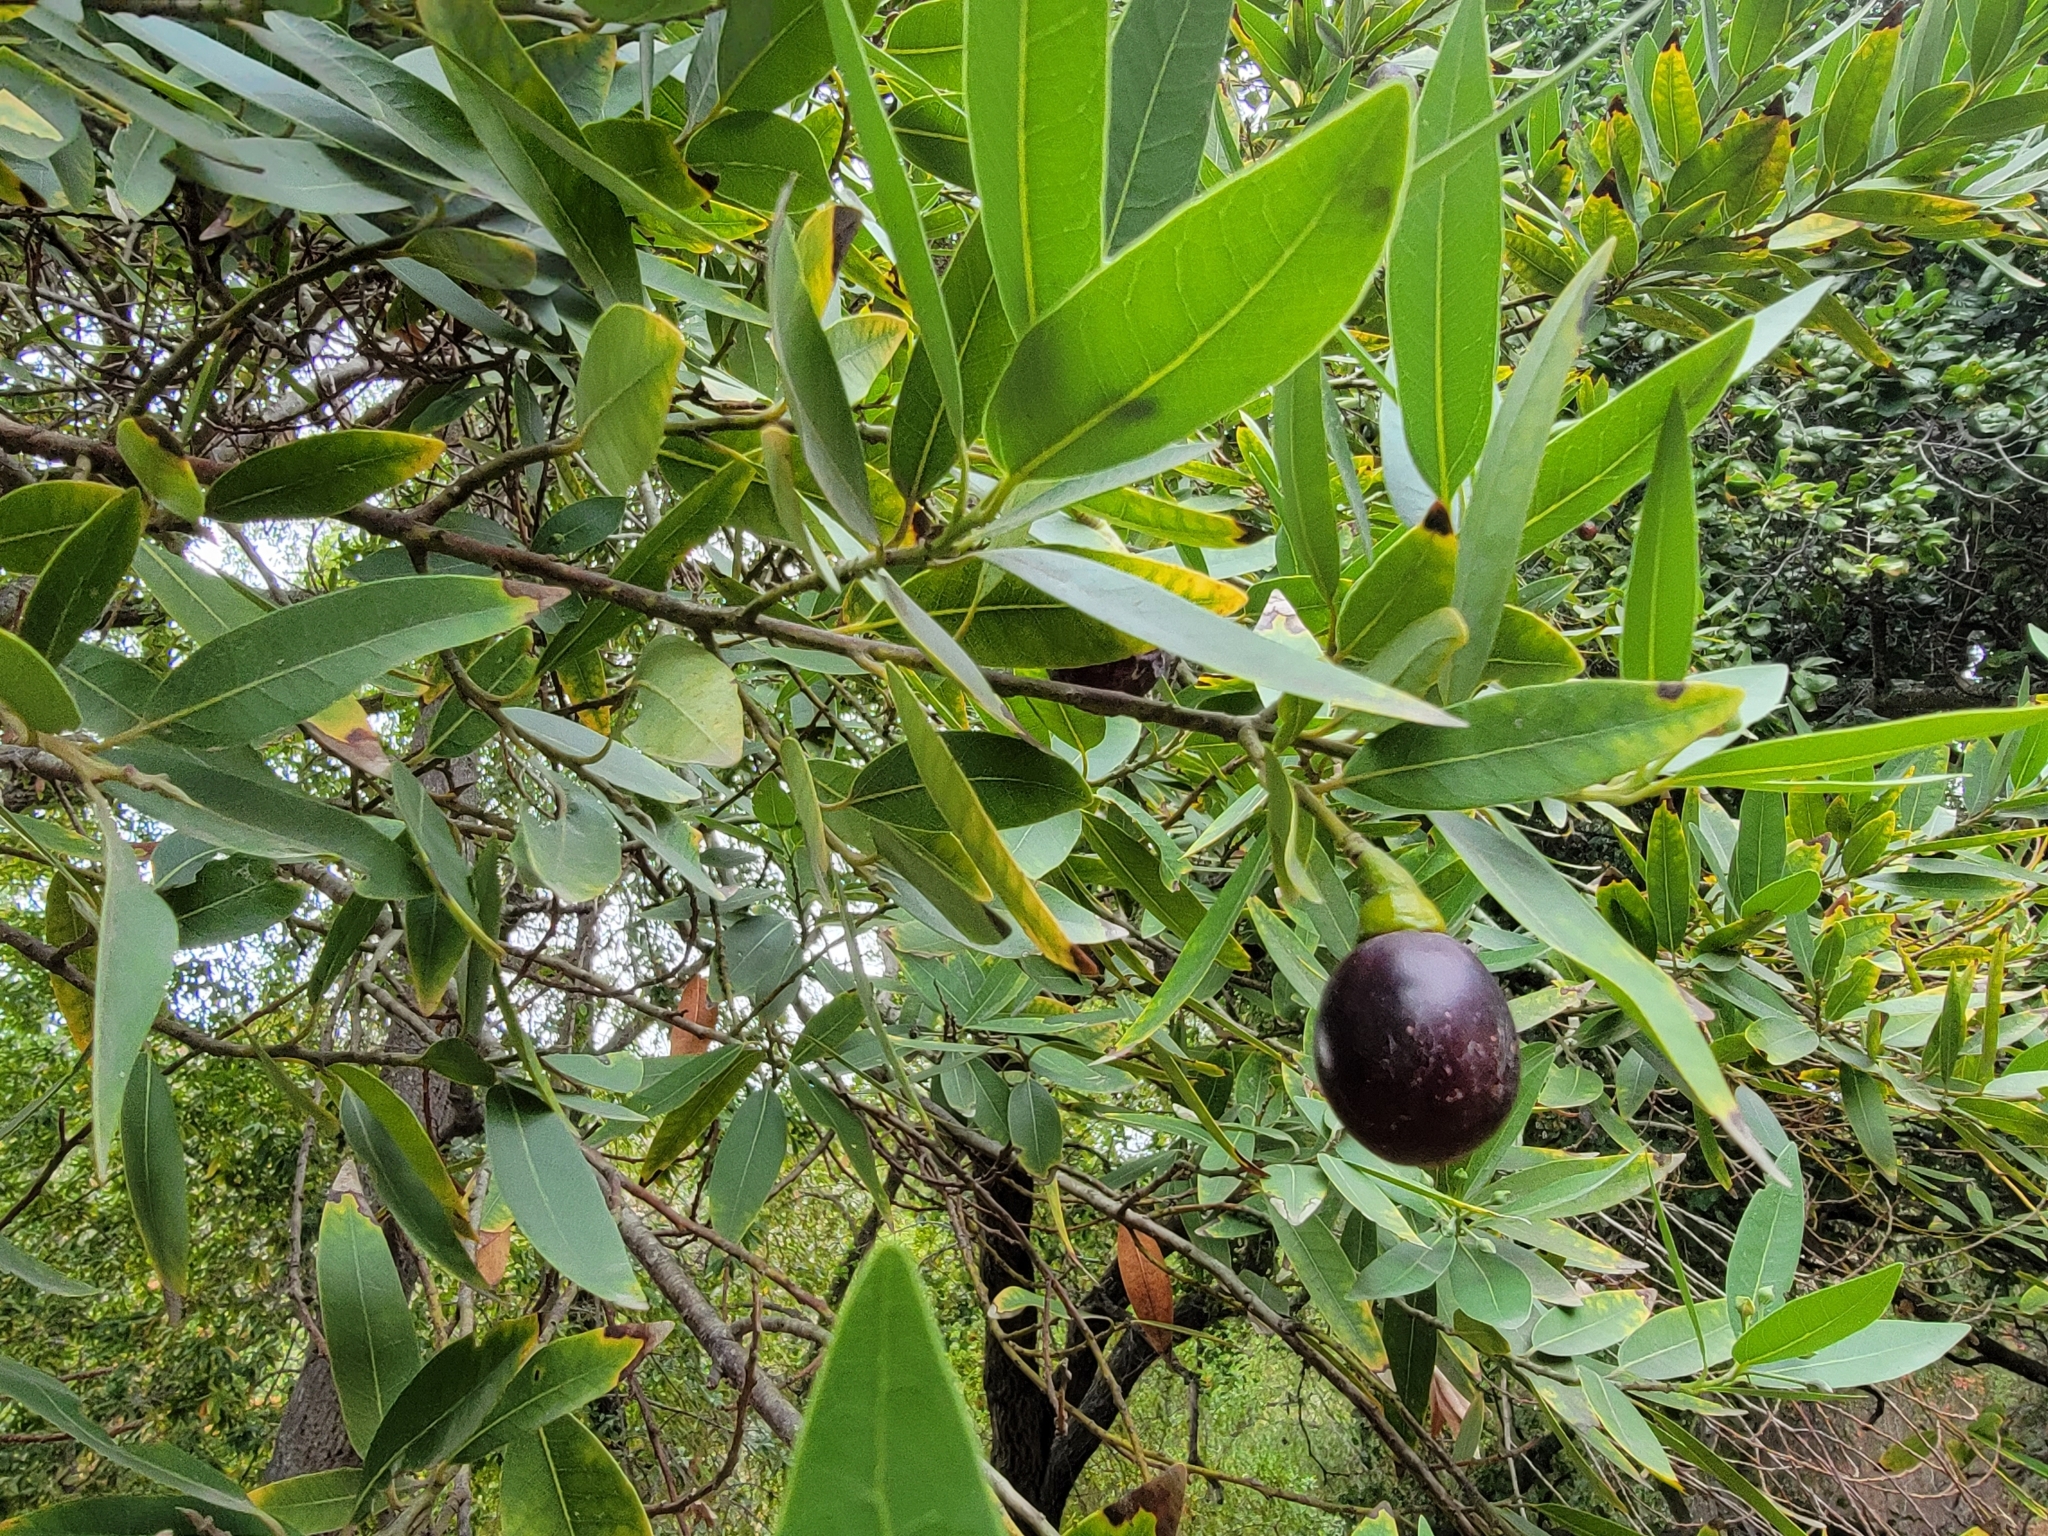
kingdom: Plantae
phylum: Tracheophyta
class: Magnoliopsida
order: Laurales
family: Lauraceae
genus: Umbellularia
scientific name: Umbellularia californica
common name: California bay
